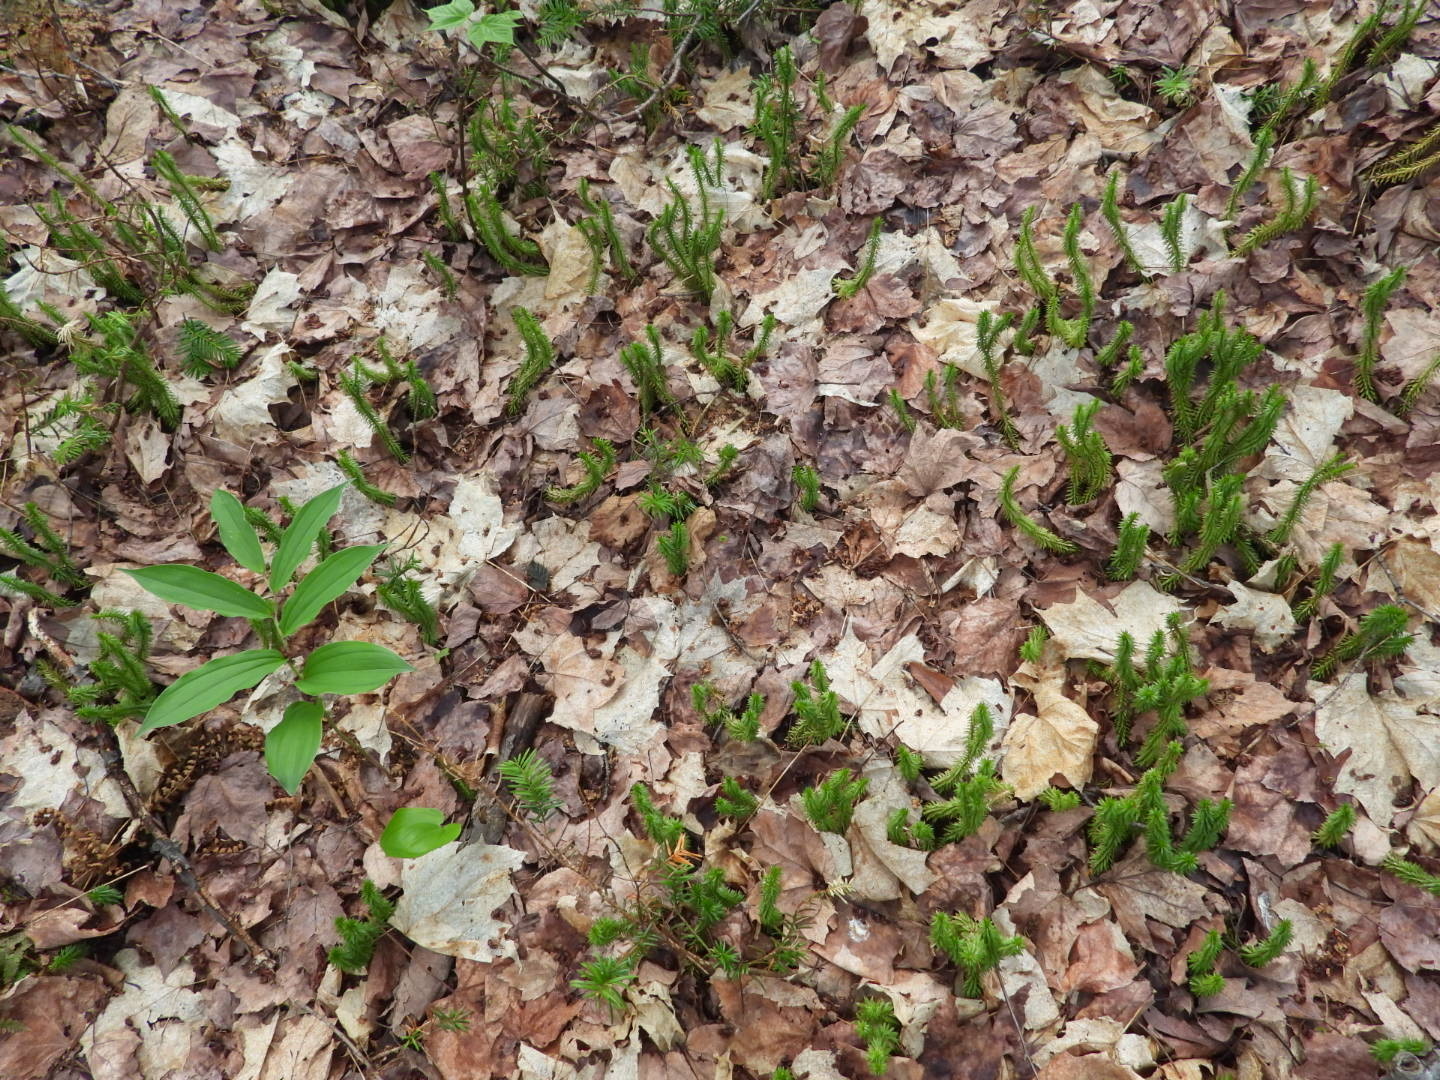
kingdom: Plantae
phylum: Tracheophyta
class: Lycopodiopsida
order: Lycopodiales
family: Lycopodiaceae
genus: Huperzia
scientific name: Huperzia lucidula
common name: Shining clubmoss
